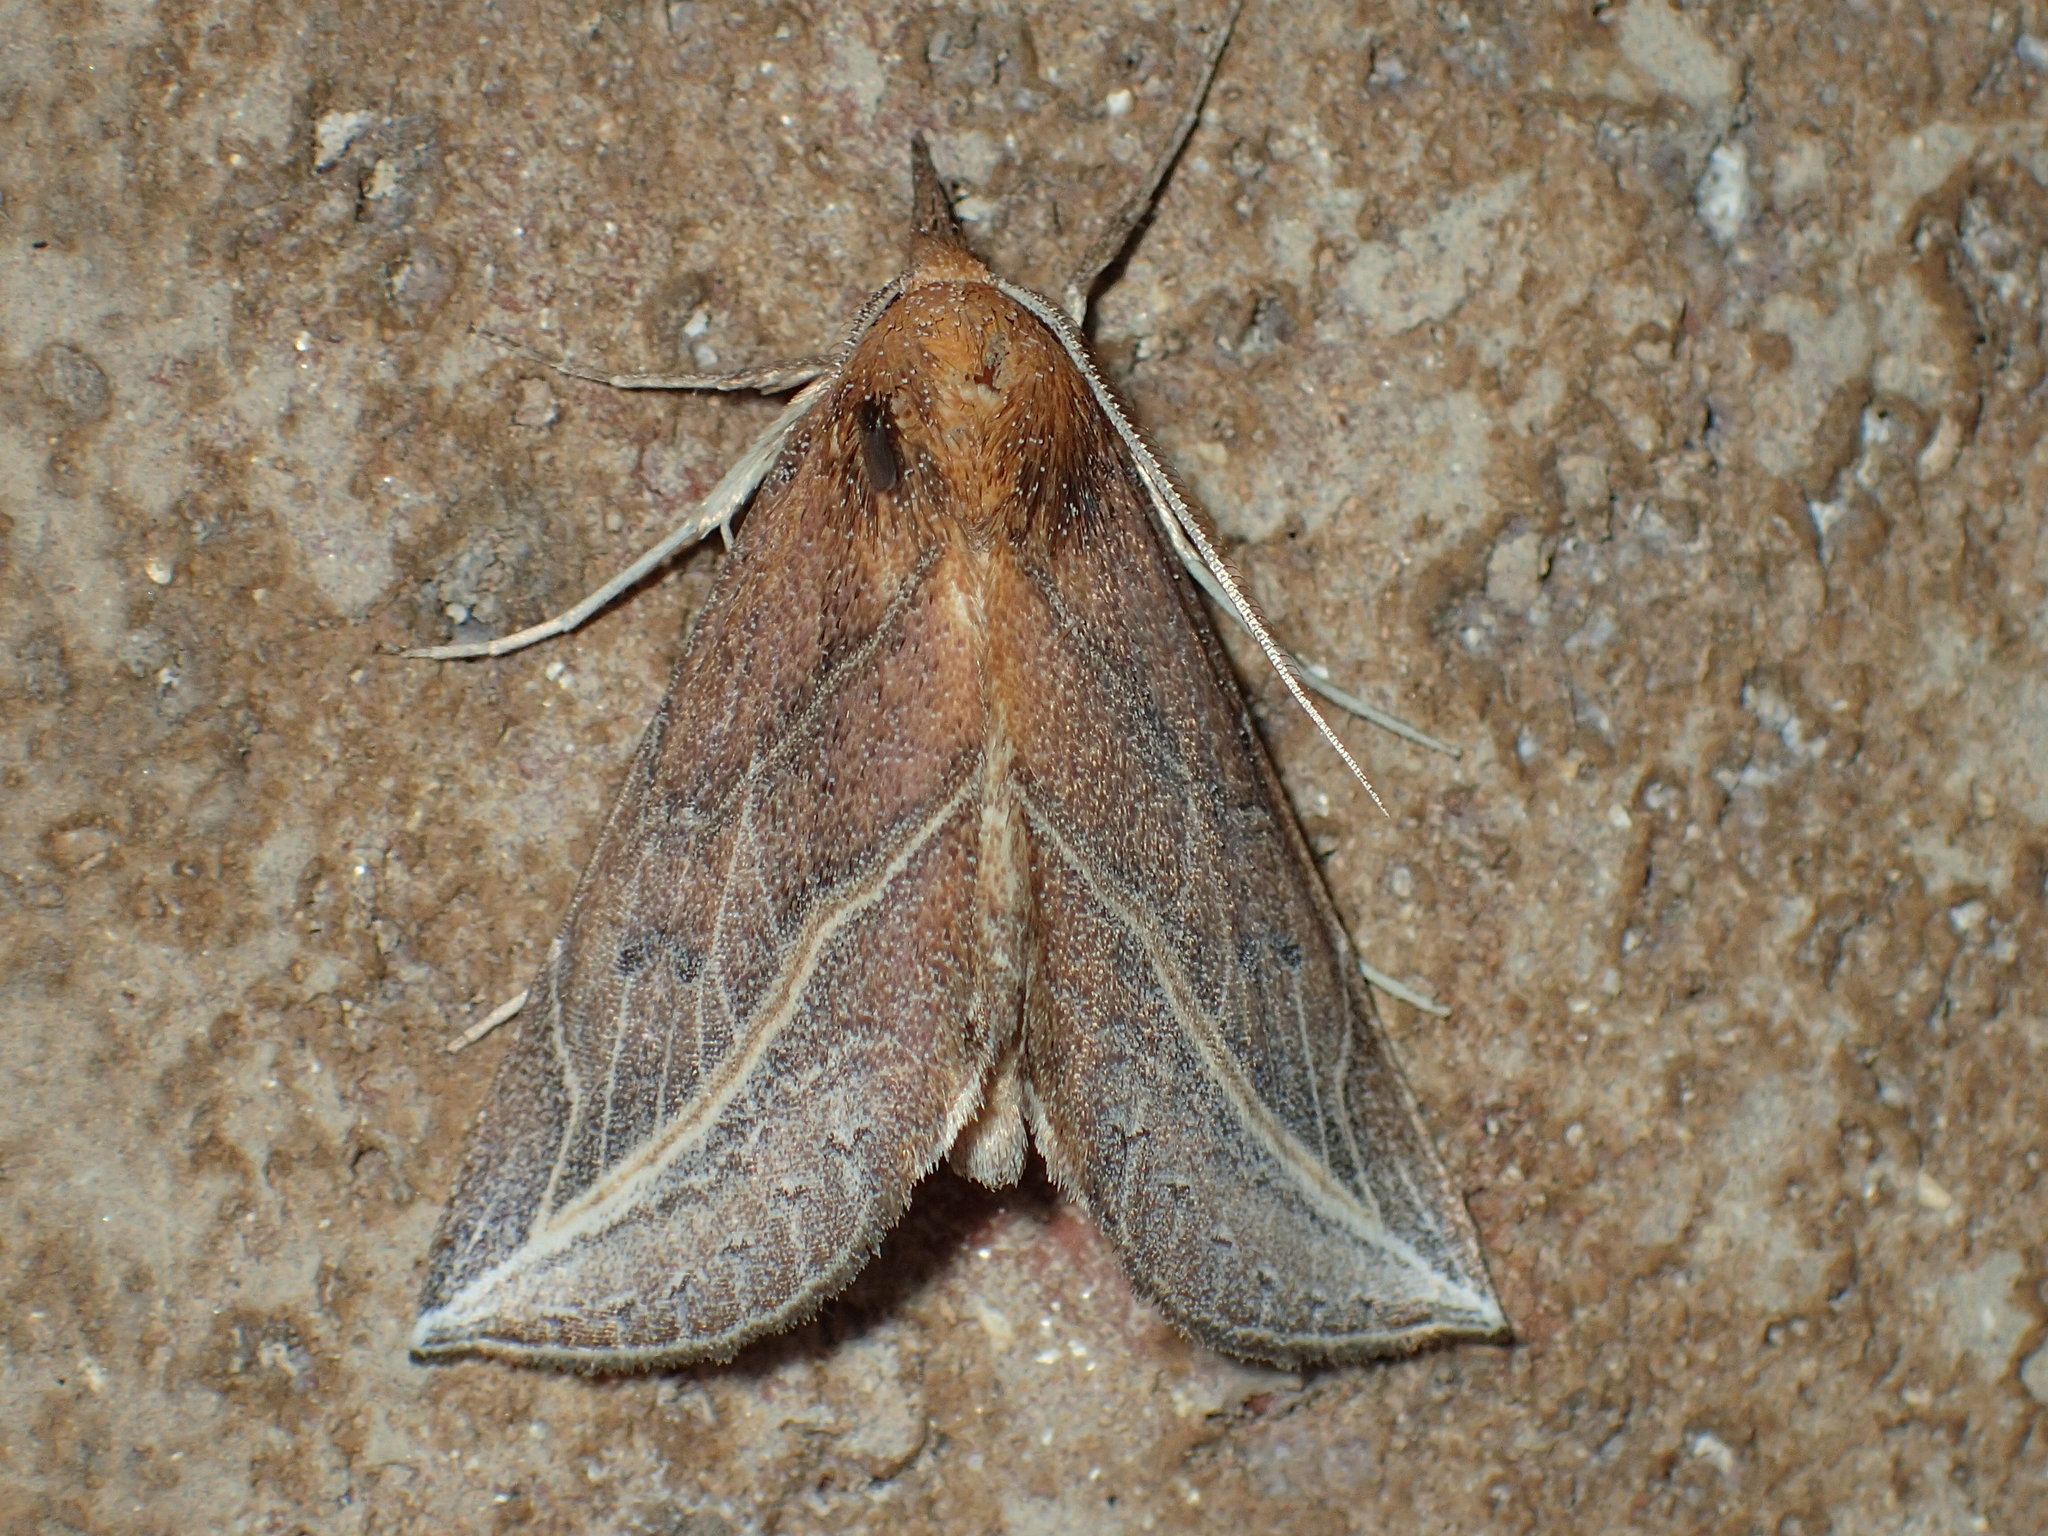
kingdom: Animalia
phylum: Arthropoda
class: Insecta
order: Lepidoptera
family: Erebidae
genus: Phyprosopus
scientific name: Phyprosopus callitrichoides
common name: Curved-lined owlet
